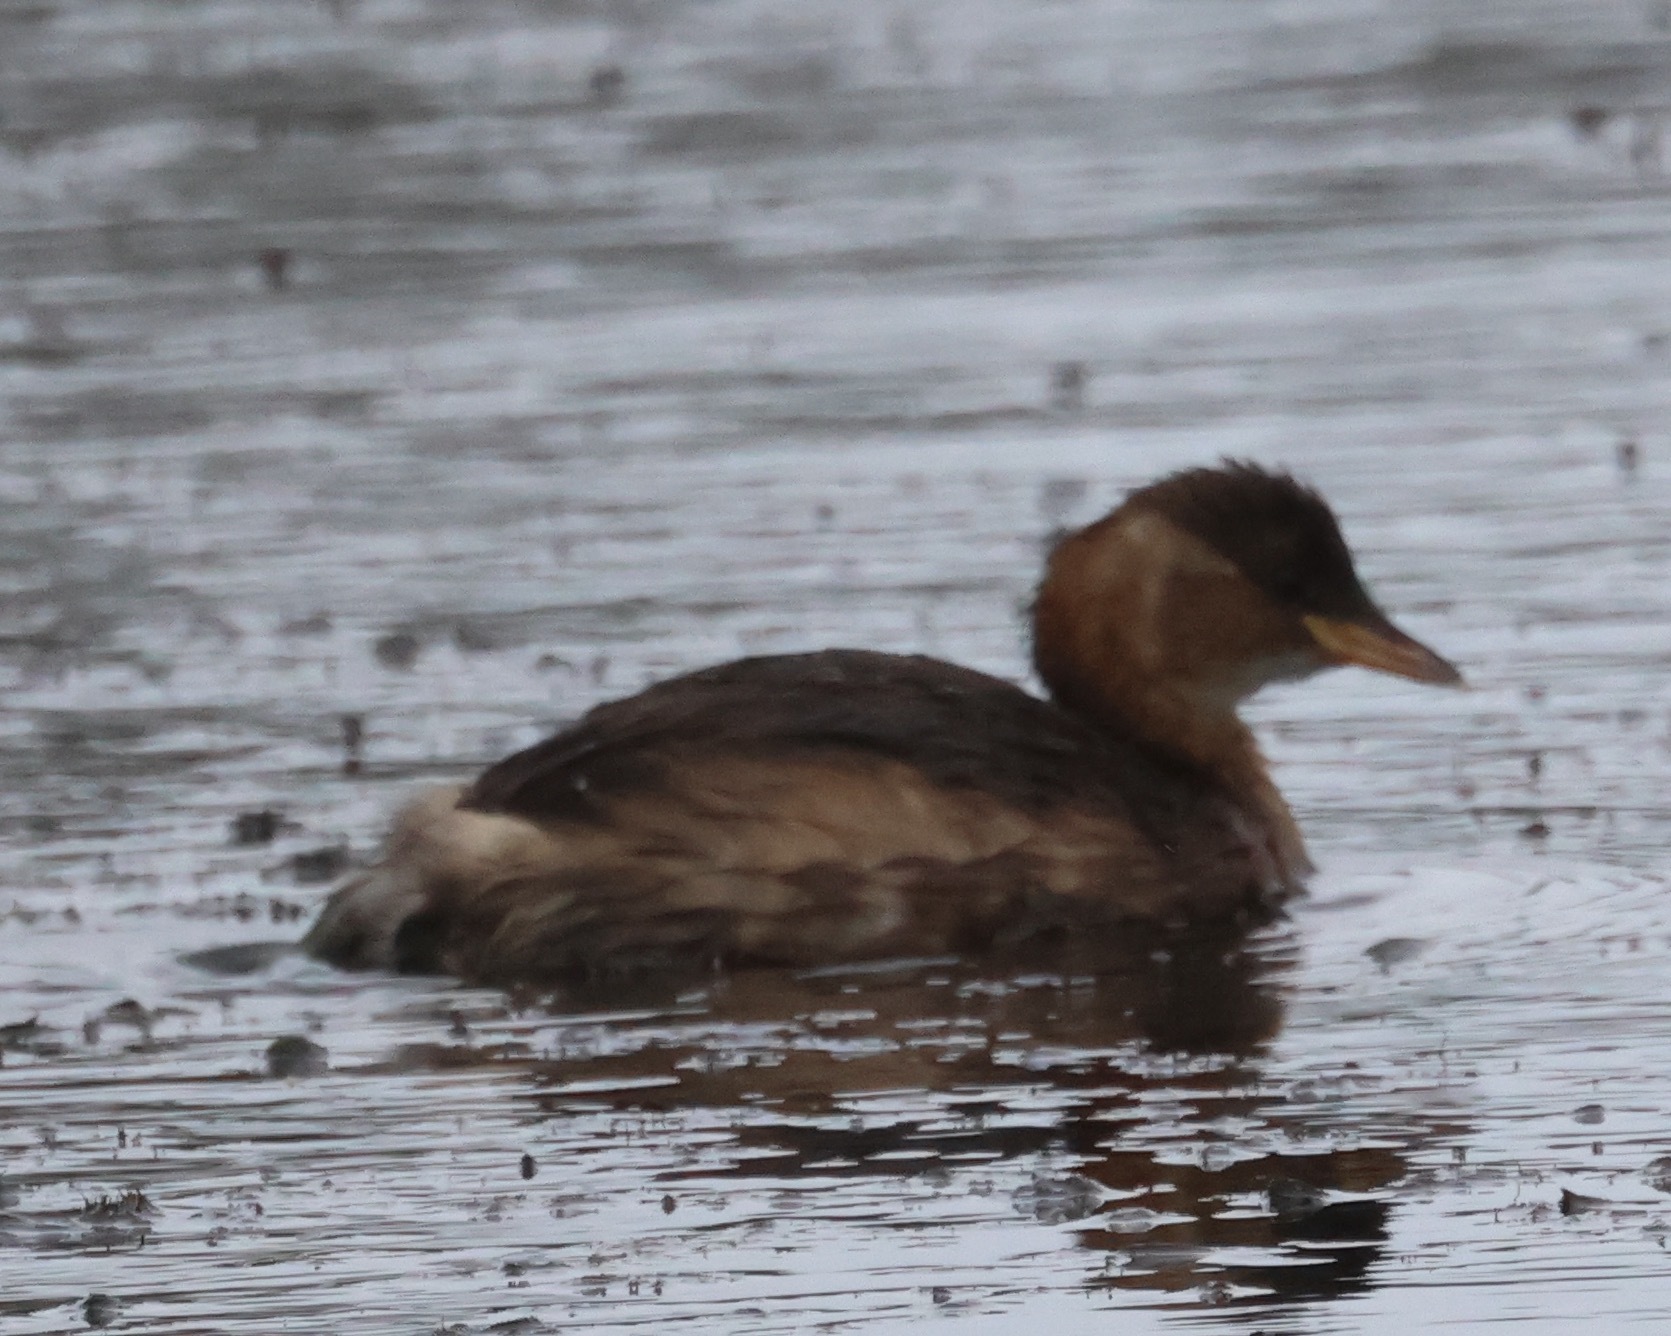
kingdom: Animalia
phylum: Chordata
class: Aves
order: Podicipediformes
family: Podicipedidae
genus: Tachybaptus
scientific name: Tachybaptus ruficollis
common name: Little grebe
